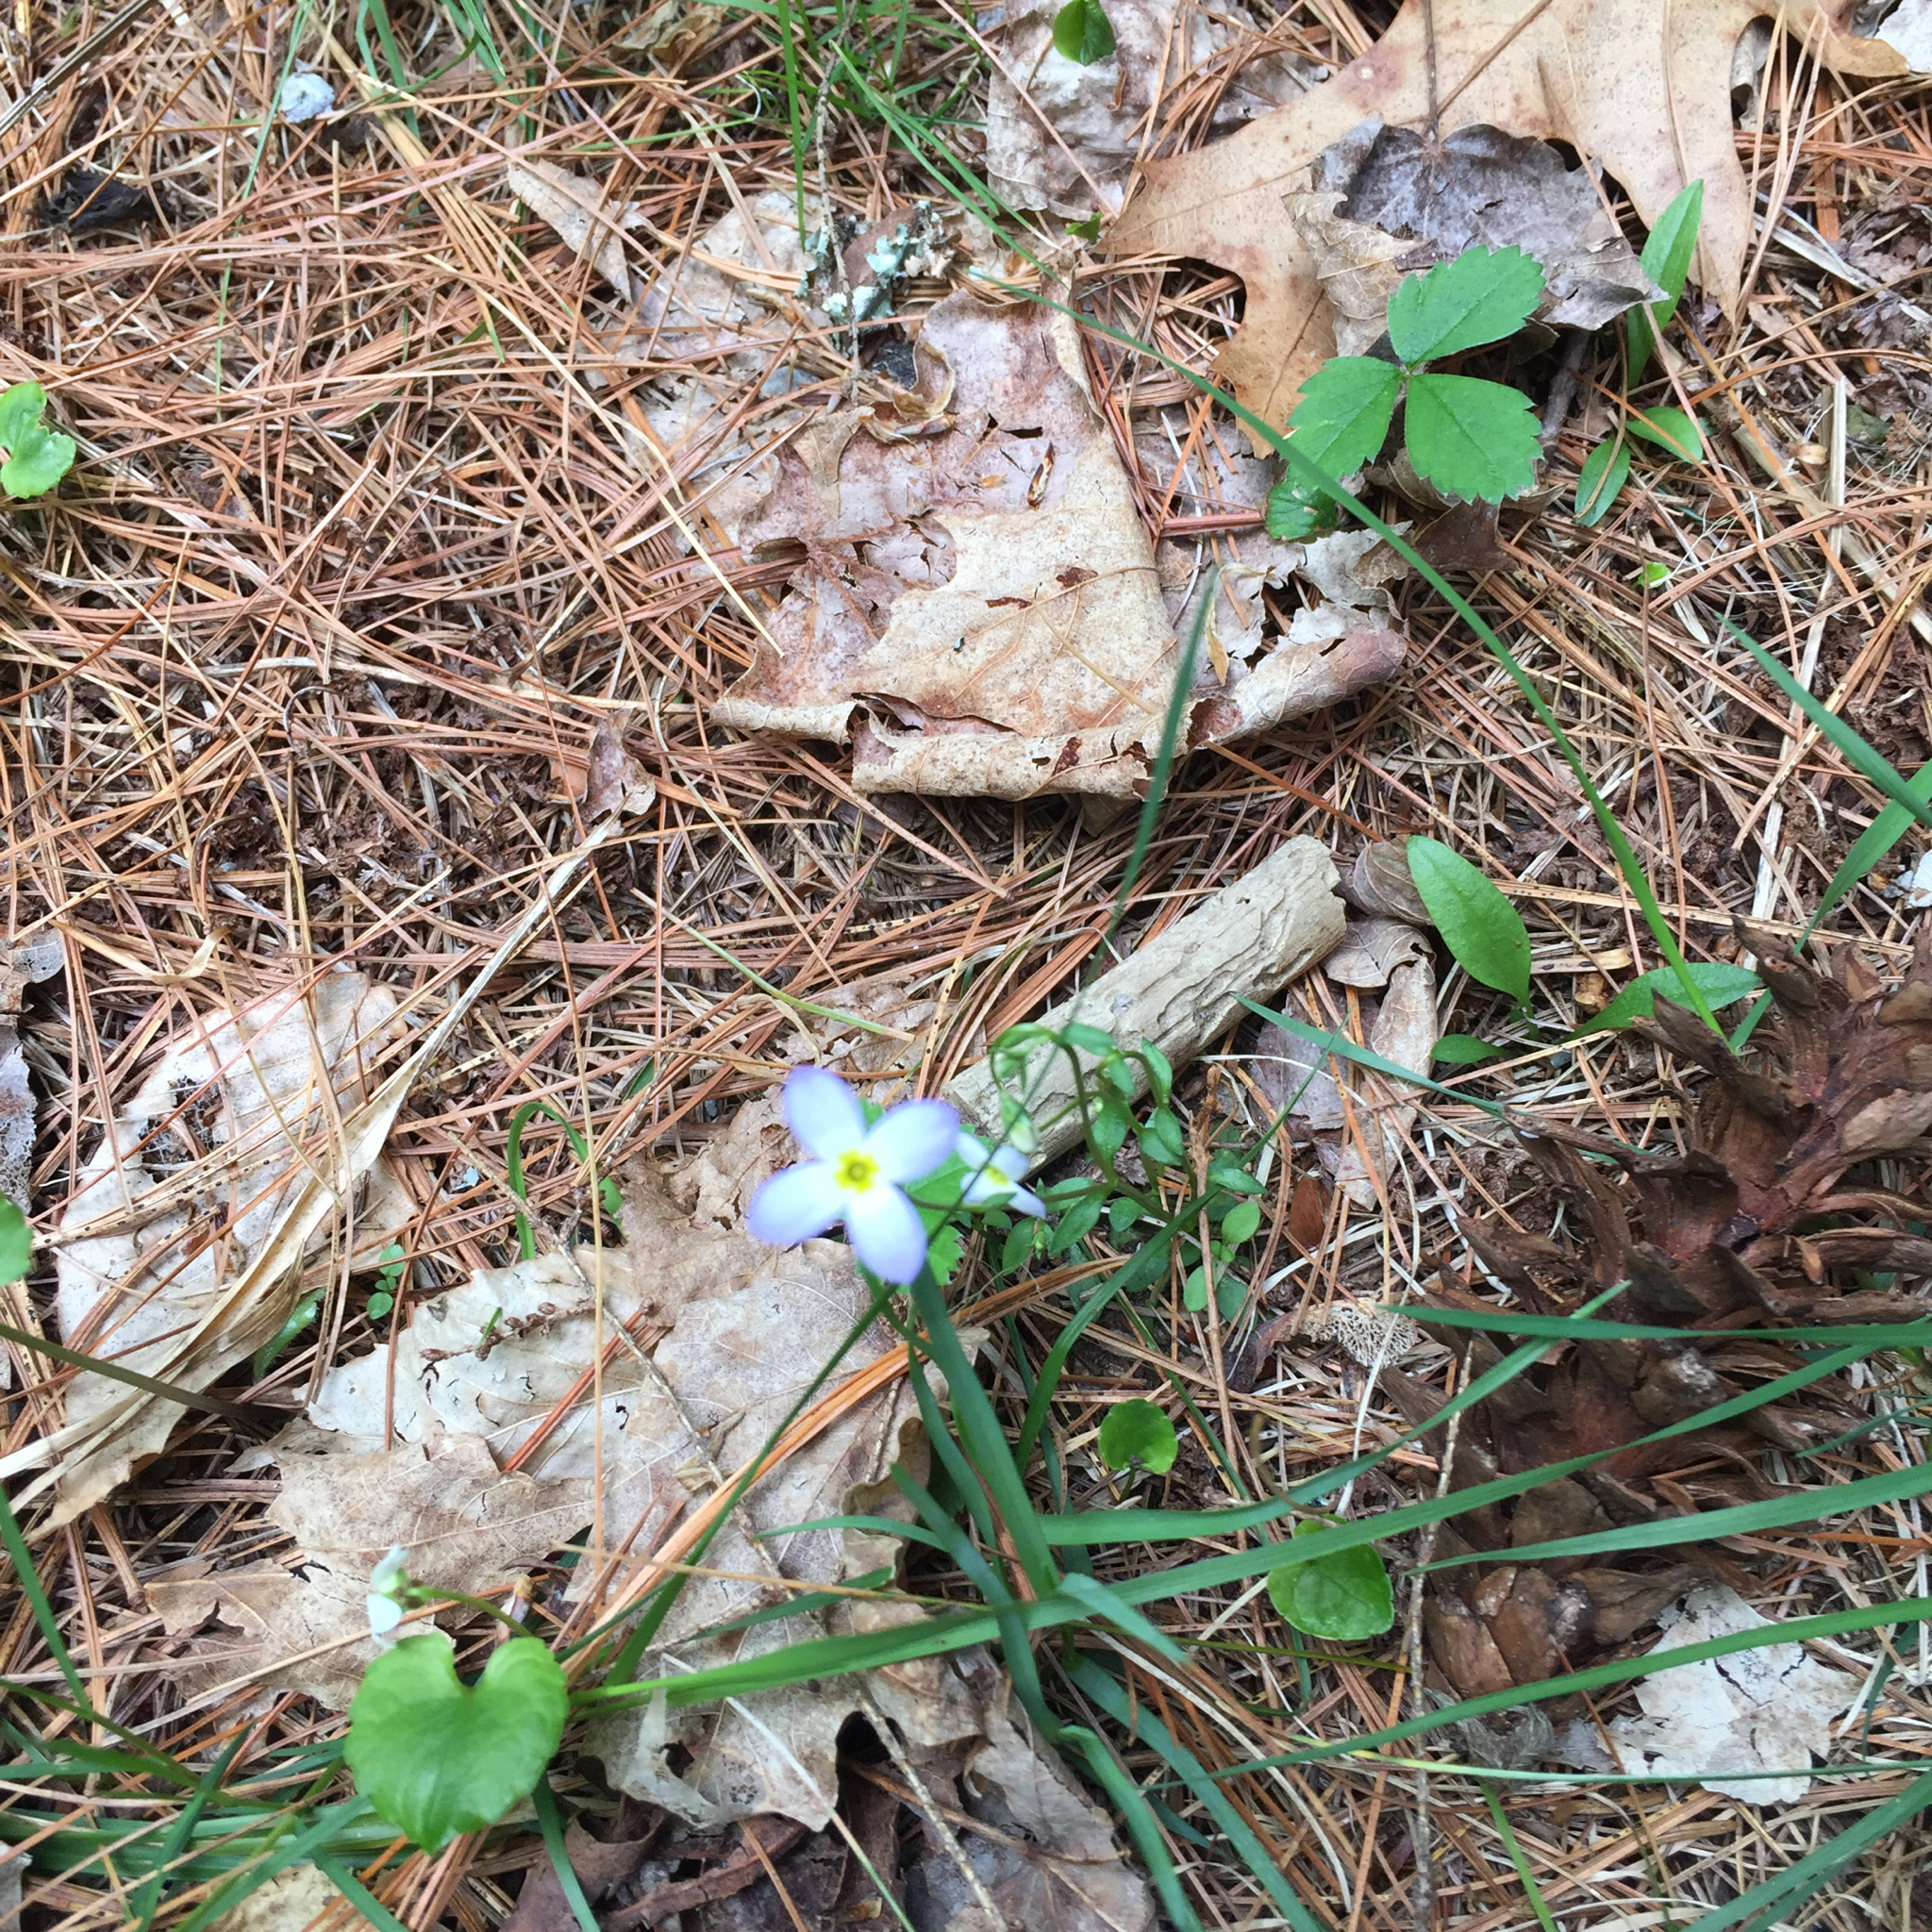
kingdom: Plantae
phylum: Tracheophyta
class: Magnoliopsida
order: Gentianales
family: Rubiaceae
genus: Houstonia
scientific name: Houstonia caerulea
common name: Bluets
